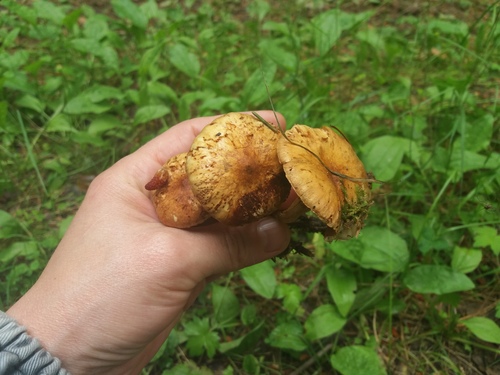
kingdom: Fungi
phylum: Basidiomycota
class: Agaricomycetes
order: Agaricales
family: Strophariaceae
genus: Pholiota
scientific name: Pholiota elegans
